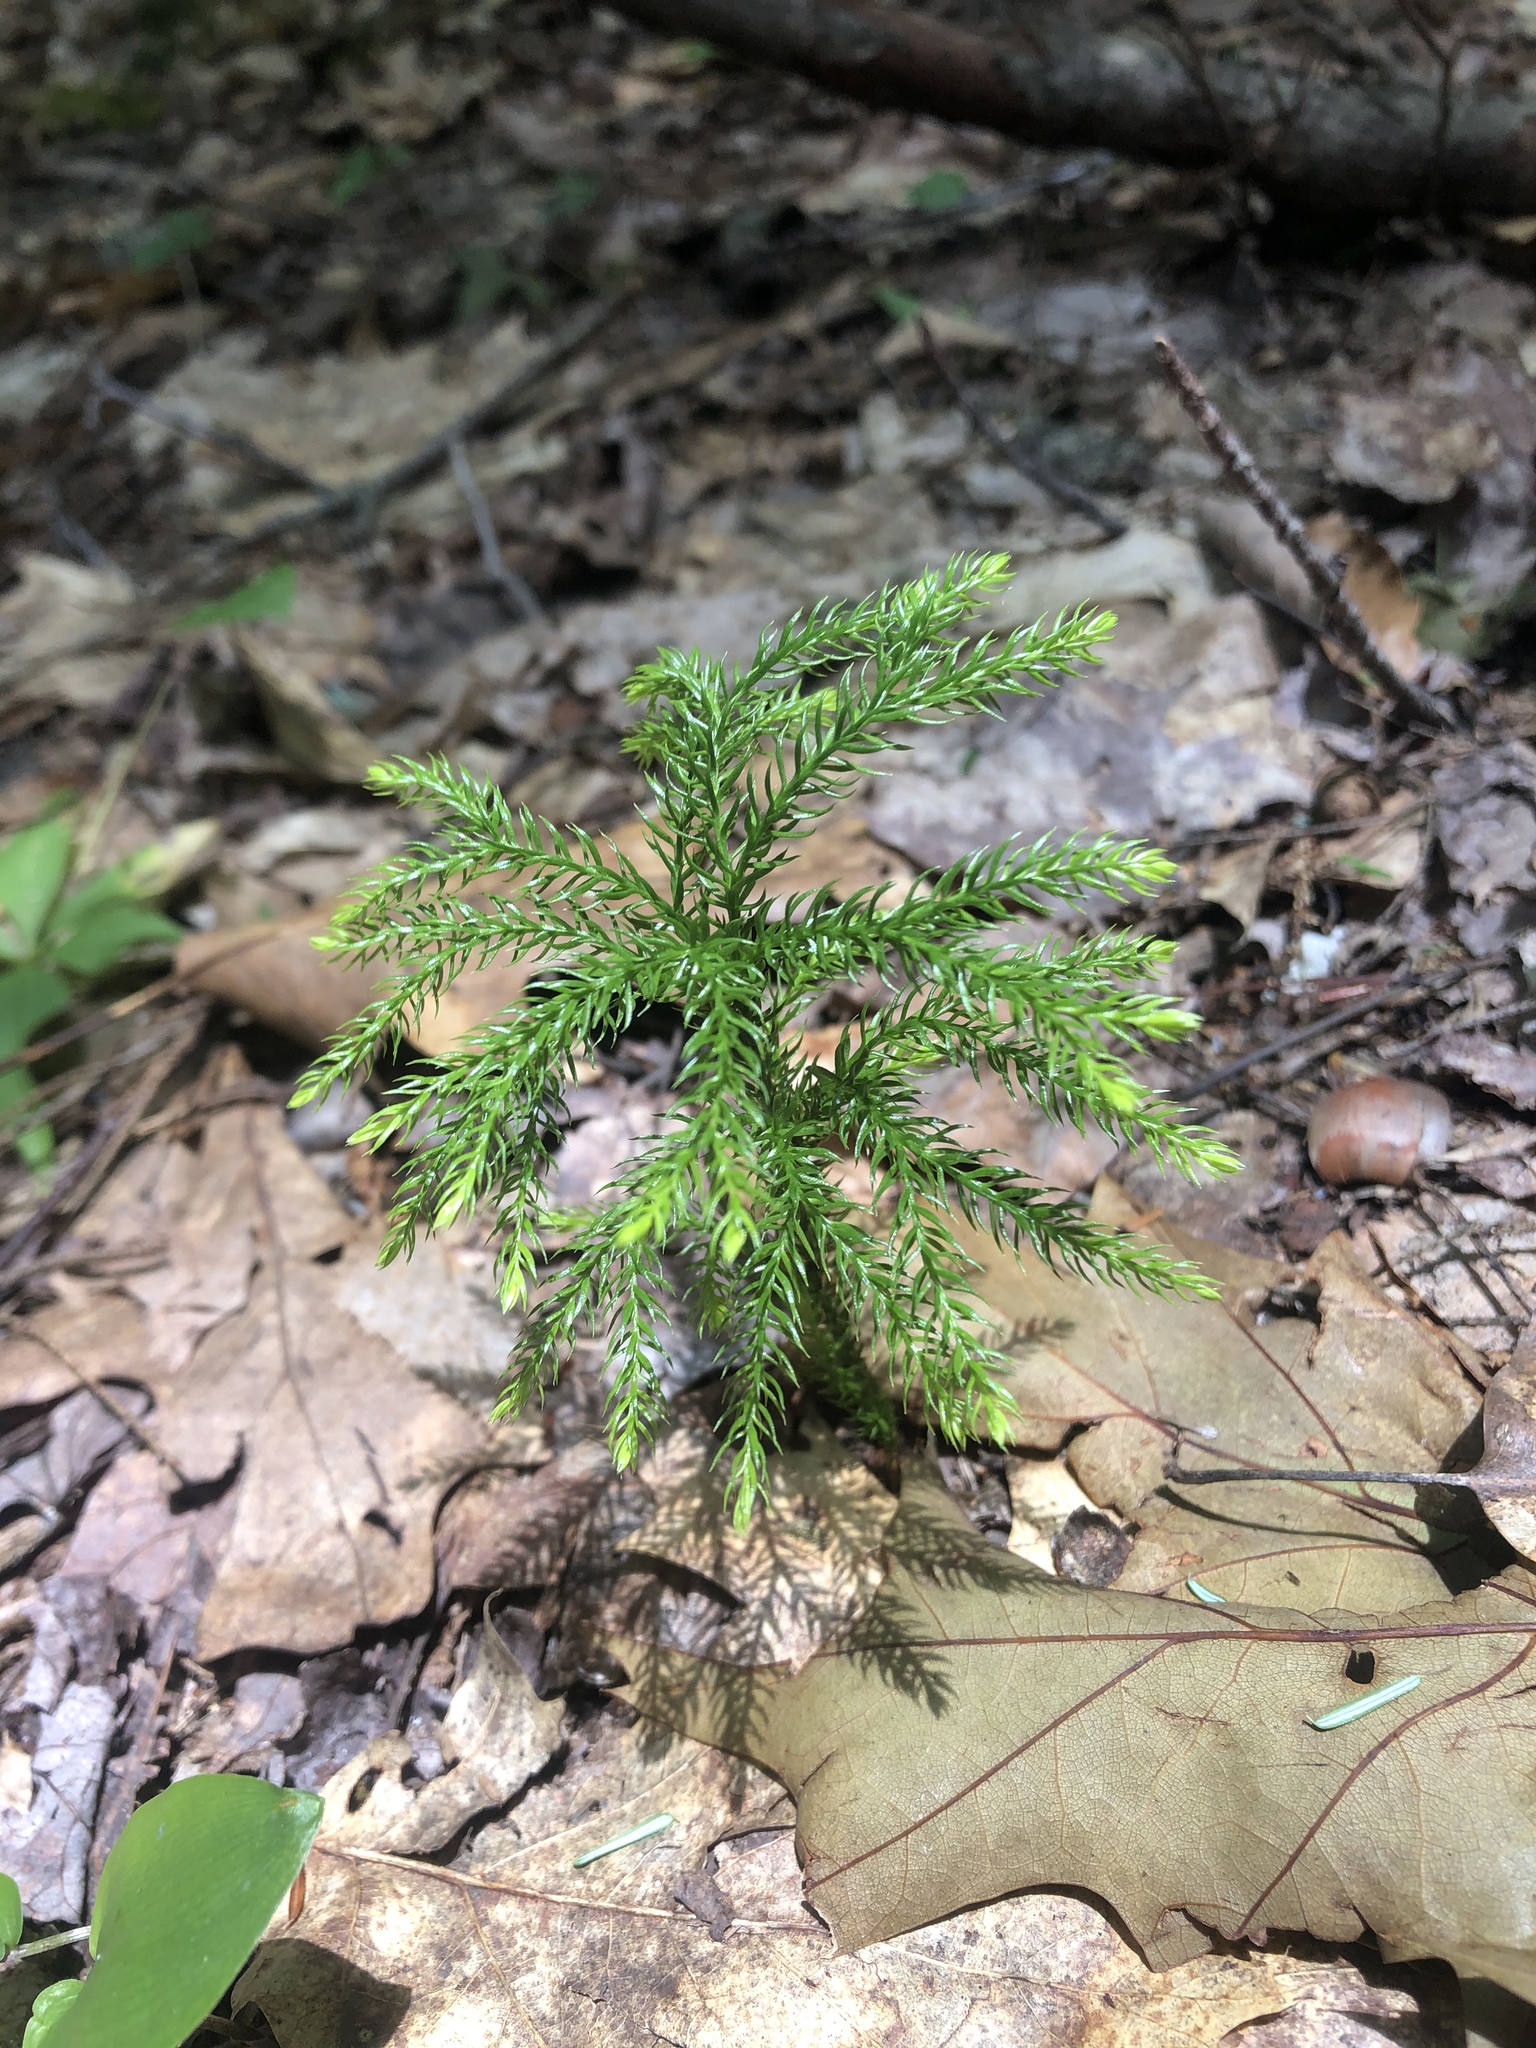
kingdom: Plantae
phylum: Tracheophyta
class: Lycopodiopsida
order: Lycopodiales
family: Lycopodiaceae
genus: Dendrolycopodium
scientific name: Dendrolycopodium dendroideum
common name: Northern tree-clubmoss
